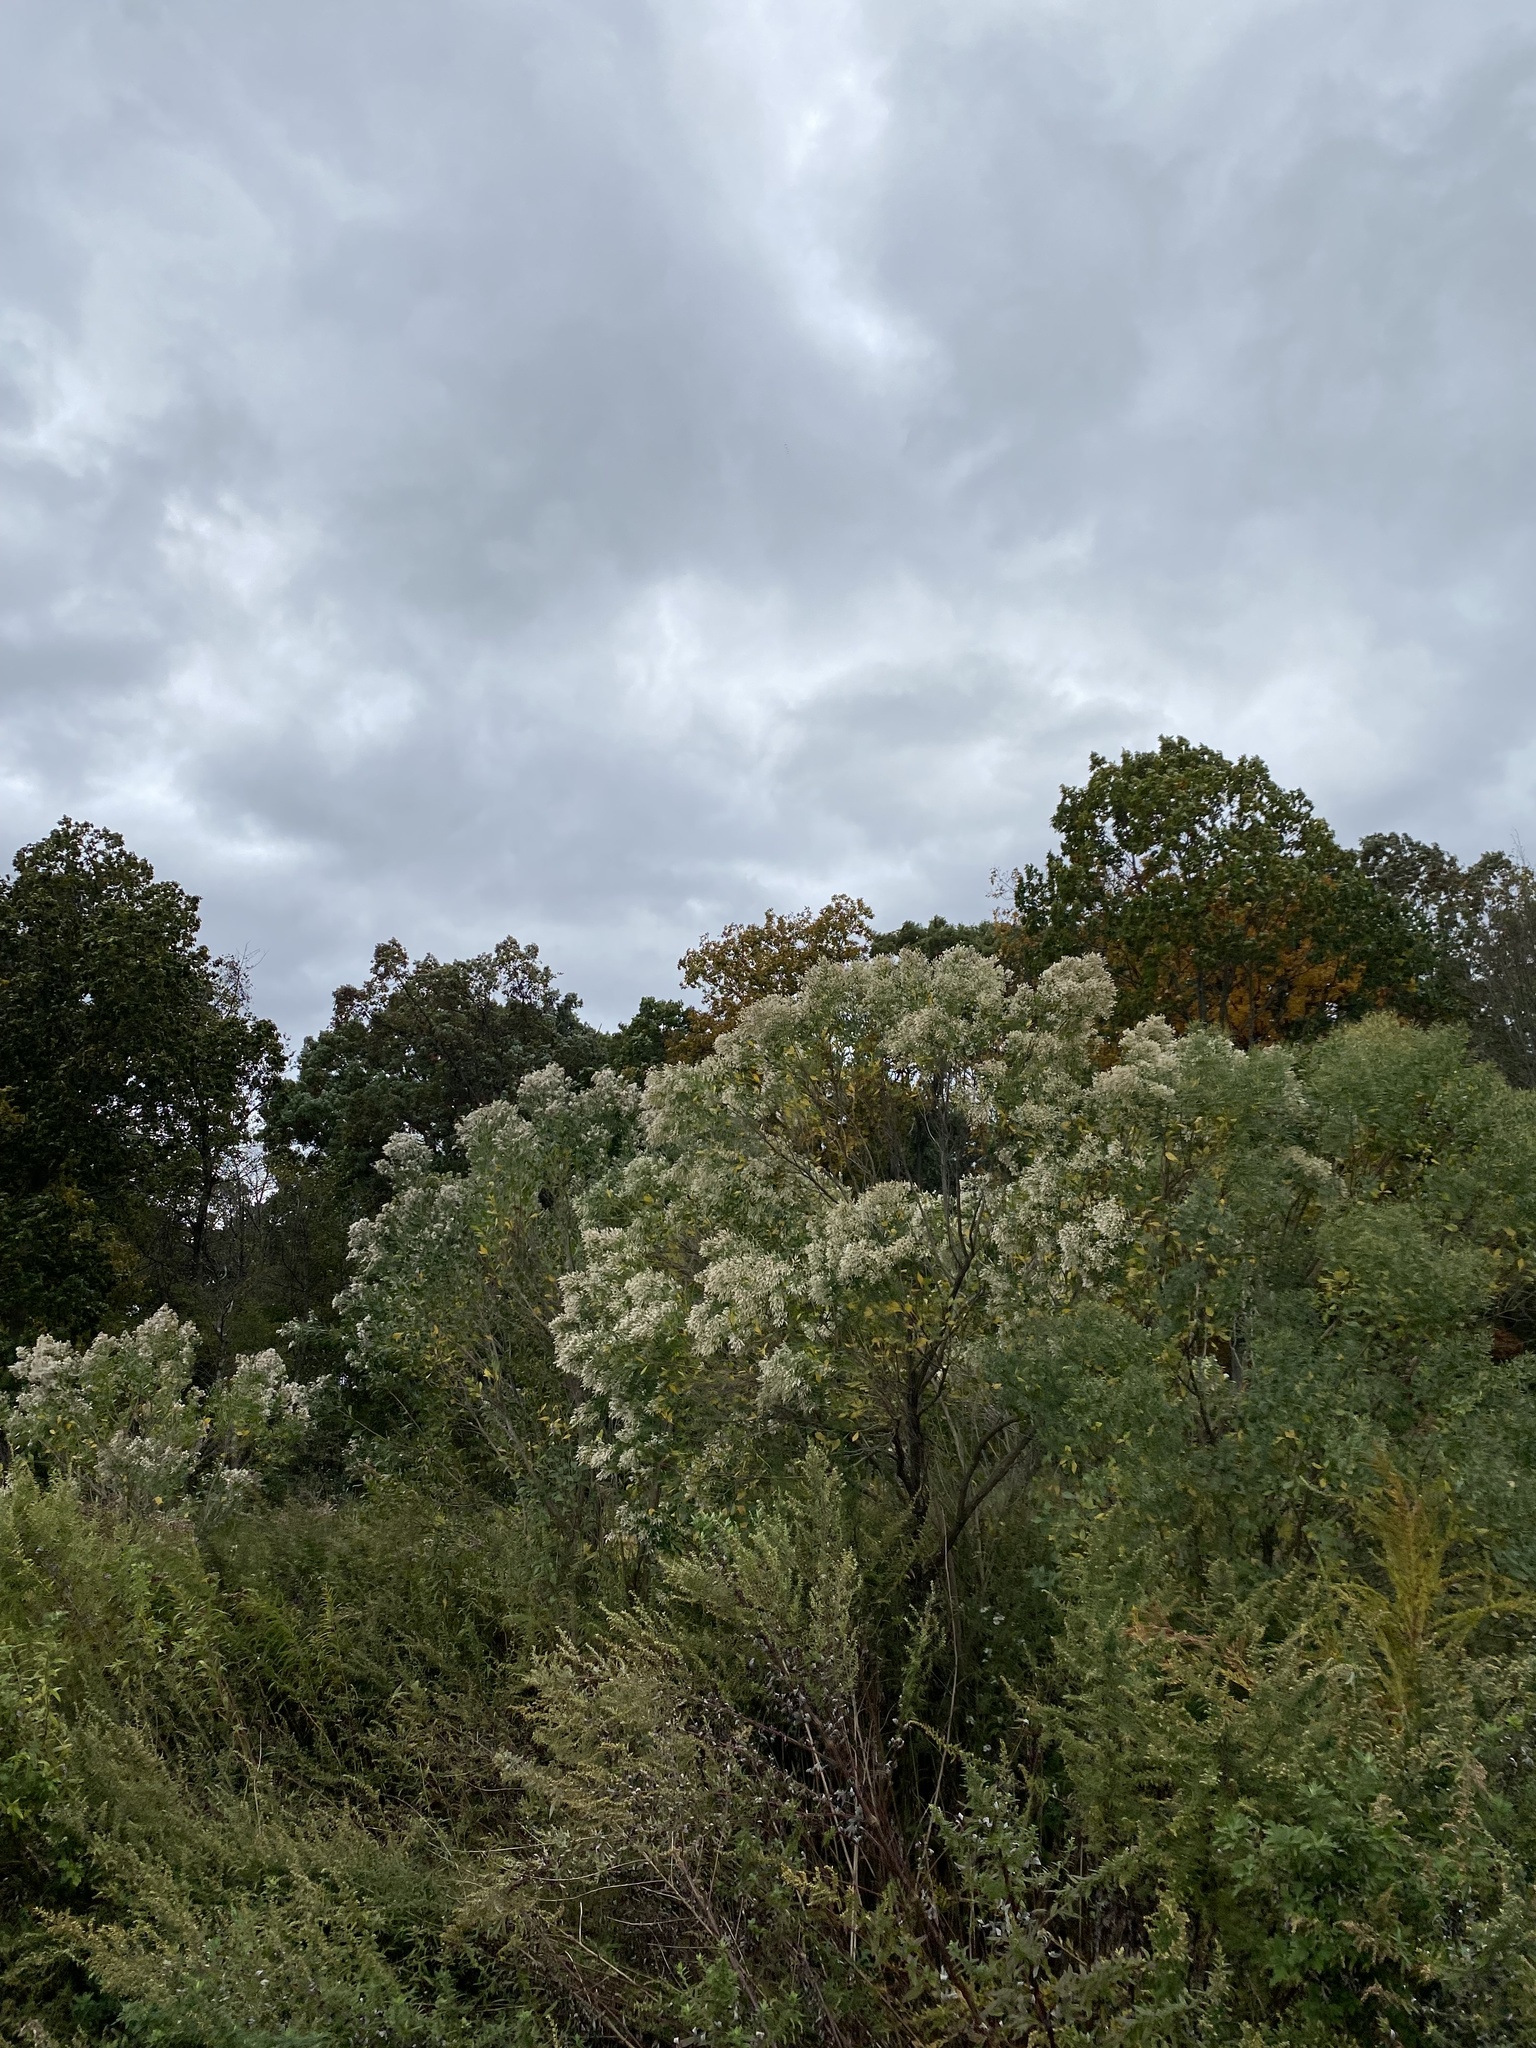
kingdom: Plantae
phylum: Tracheophyta
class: Magnoliopsida
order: Asterales
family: Asteraceae
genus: Baccharis
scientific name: Baccharis halimifolia
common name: Eastern baccharis
